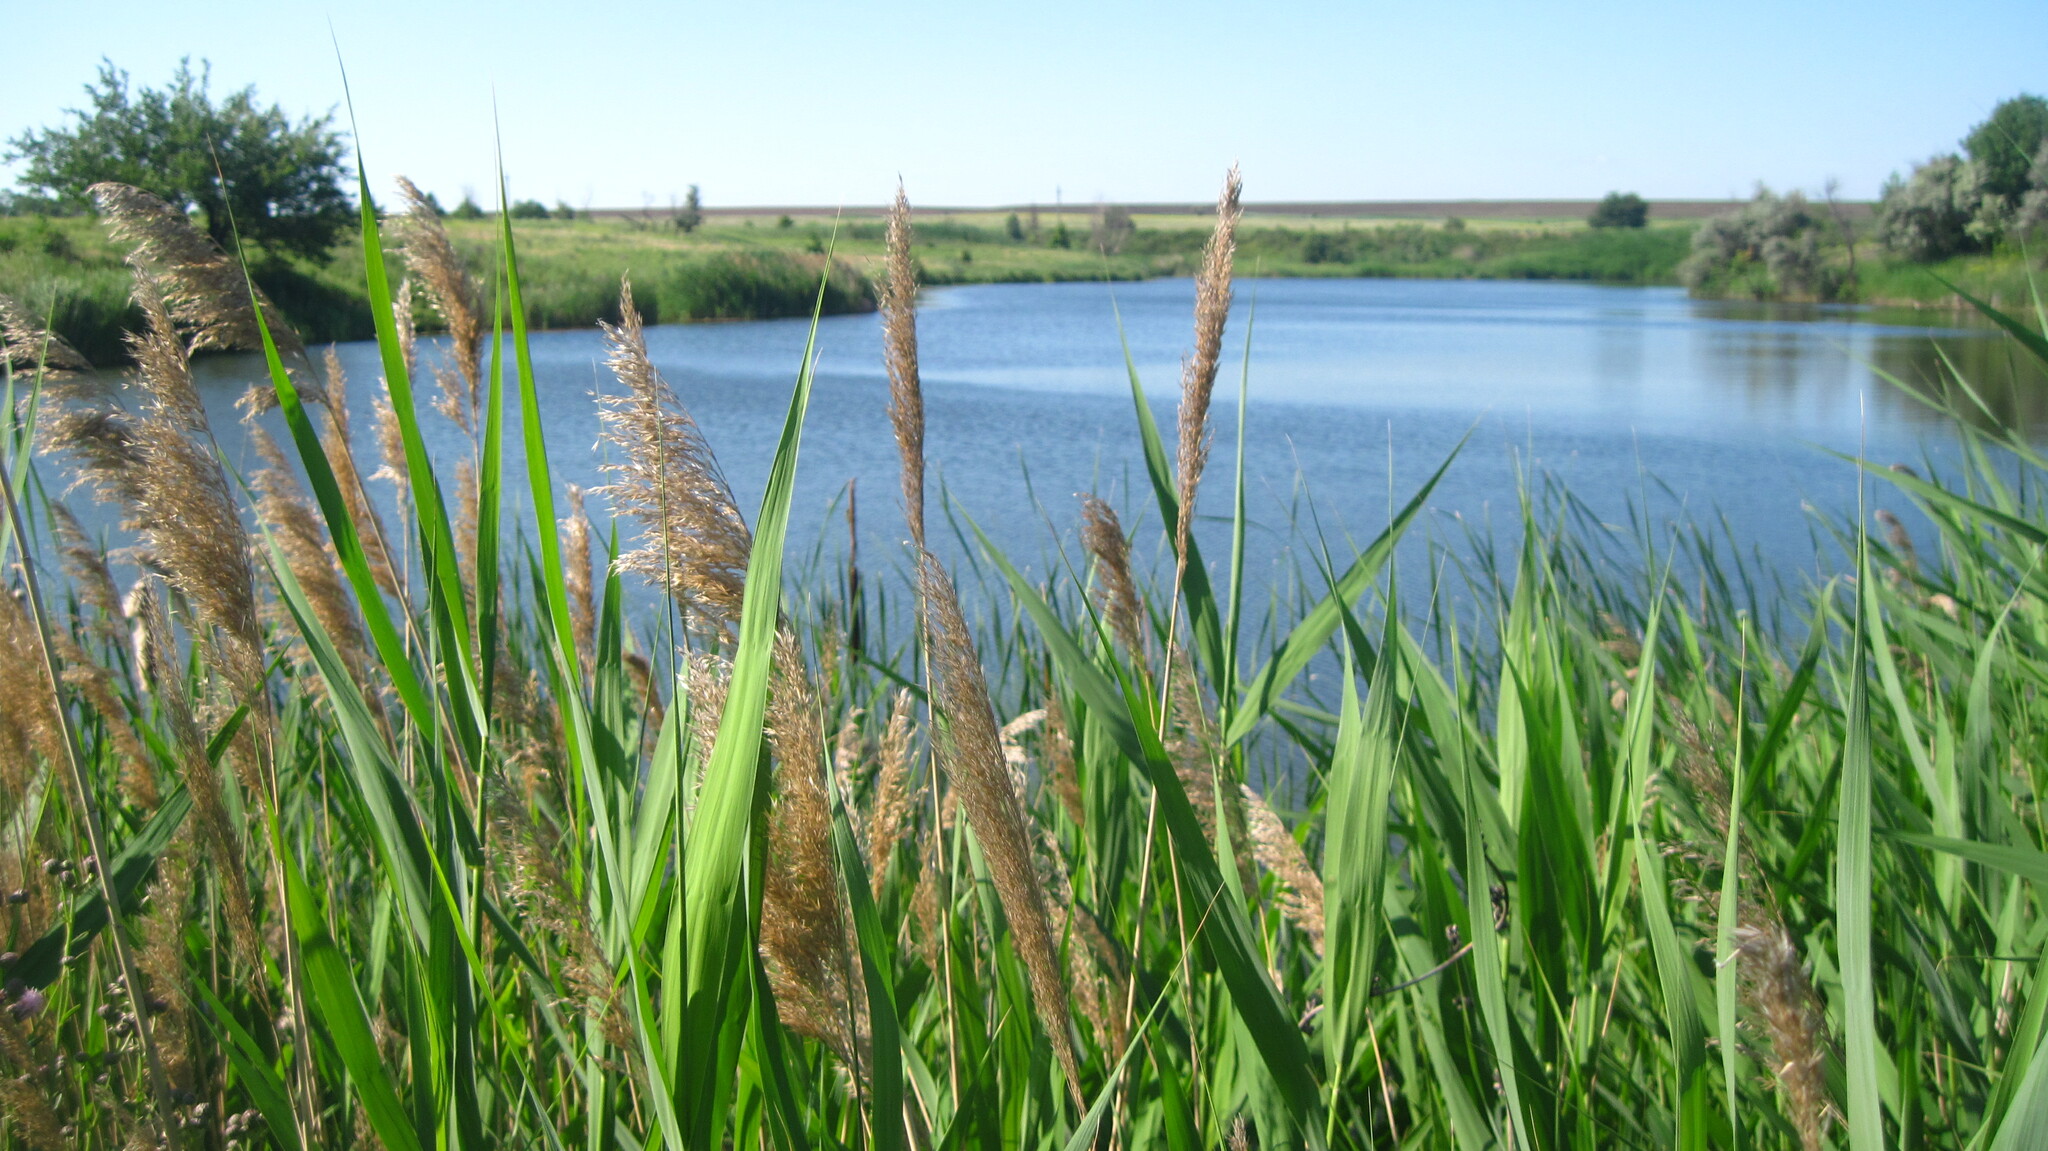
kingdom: Plantae
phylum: Tracheophyta
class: Liliopsida
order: Poales
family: Poaceae
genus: Phragmites
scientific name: Phragmites australis
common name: Common reed
